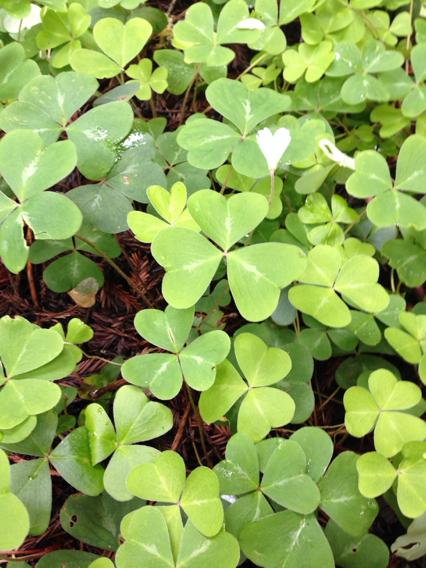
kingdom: Plantae
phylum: Tracheophyta
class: Magnoliopsida
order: Oxalidales
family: Oxalidaceae
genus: Oxalis
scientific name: Oxalis oregana
